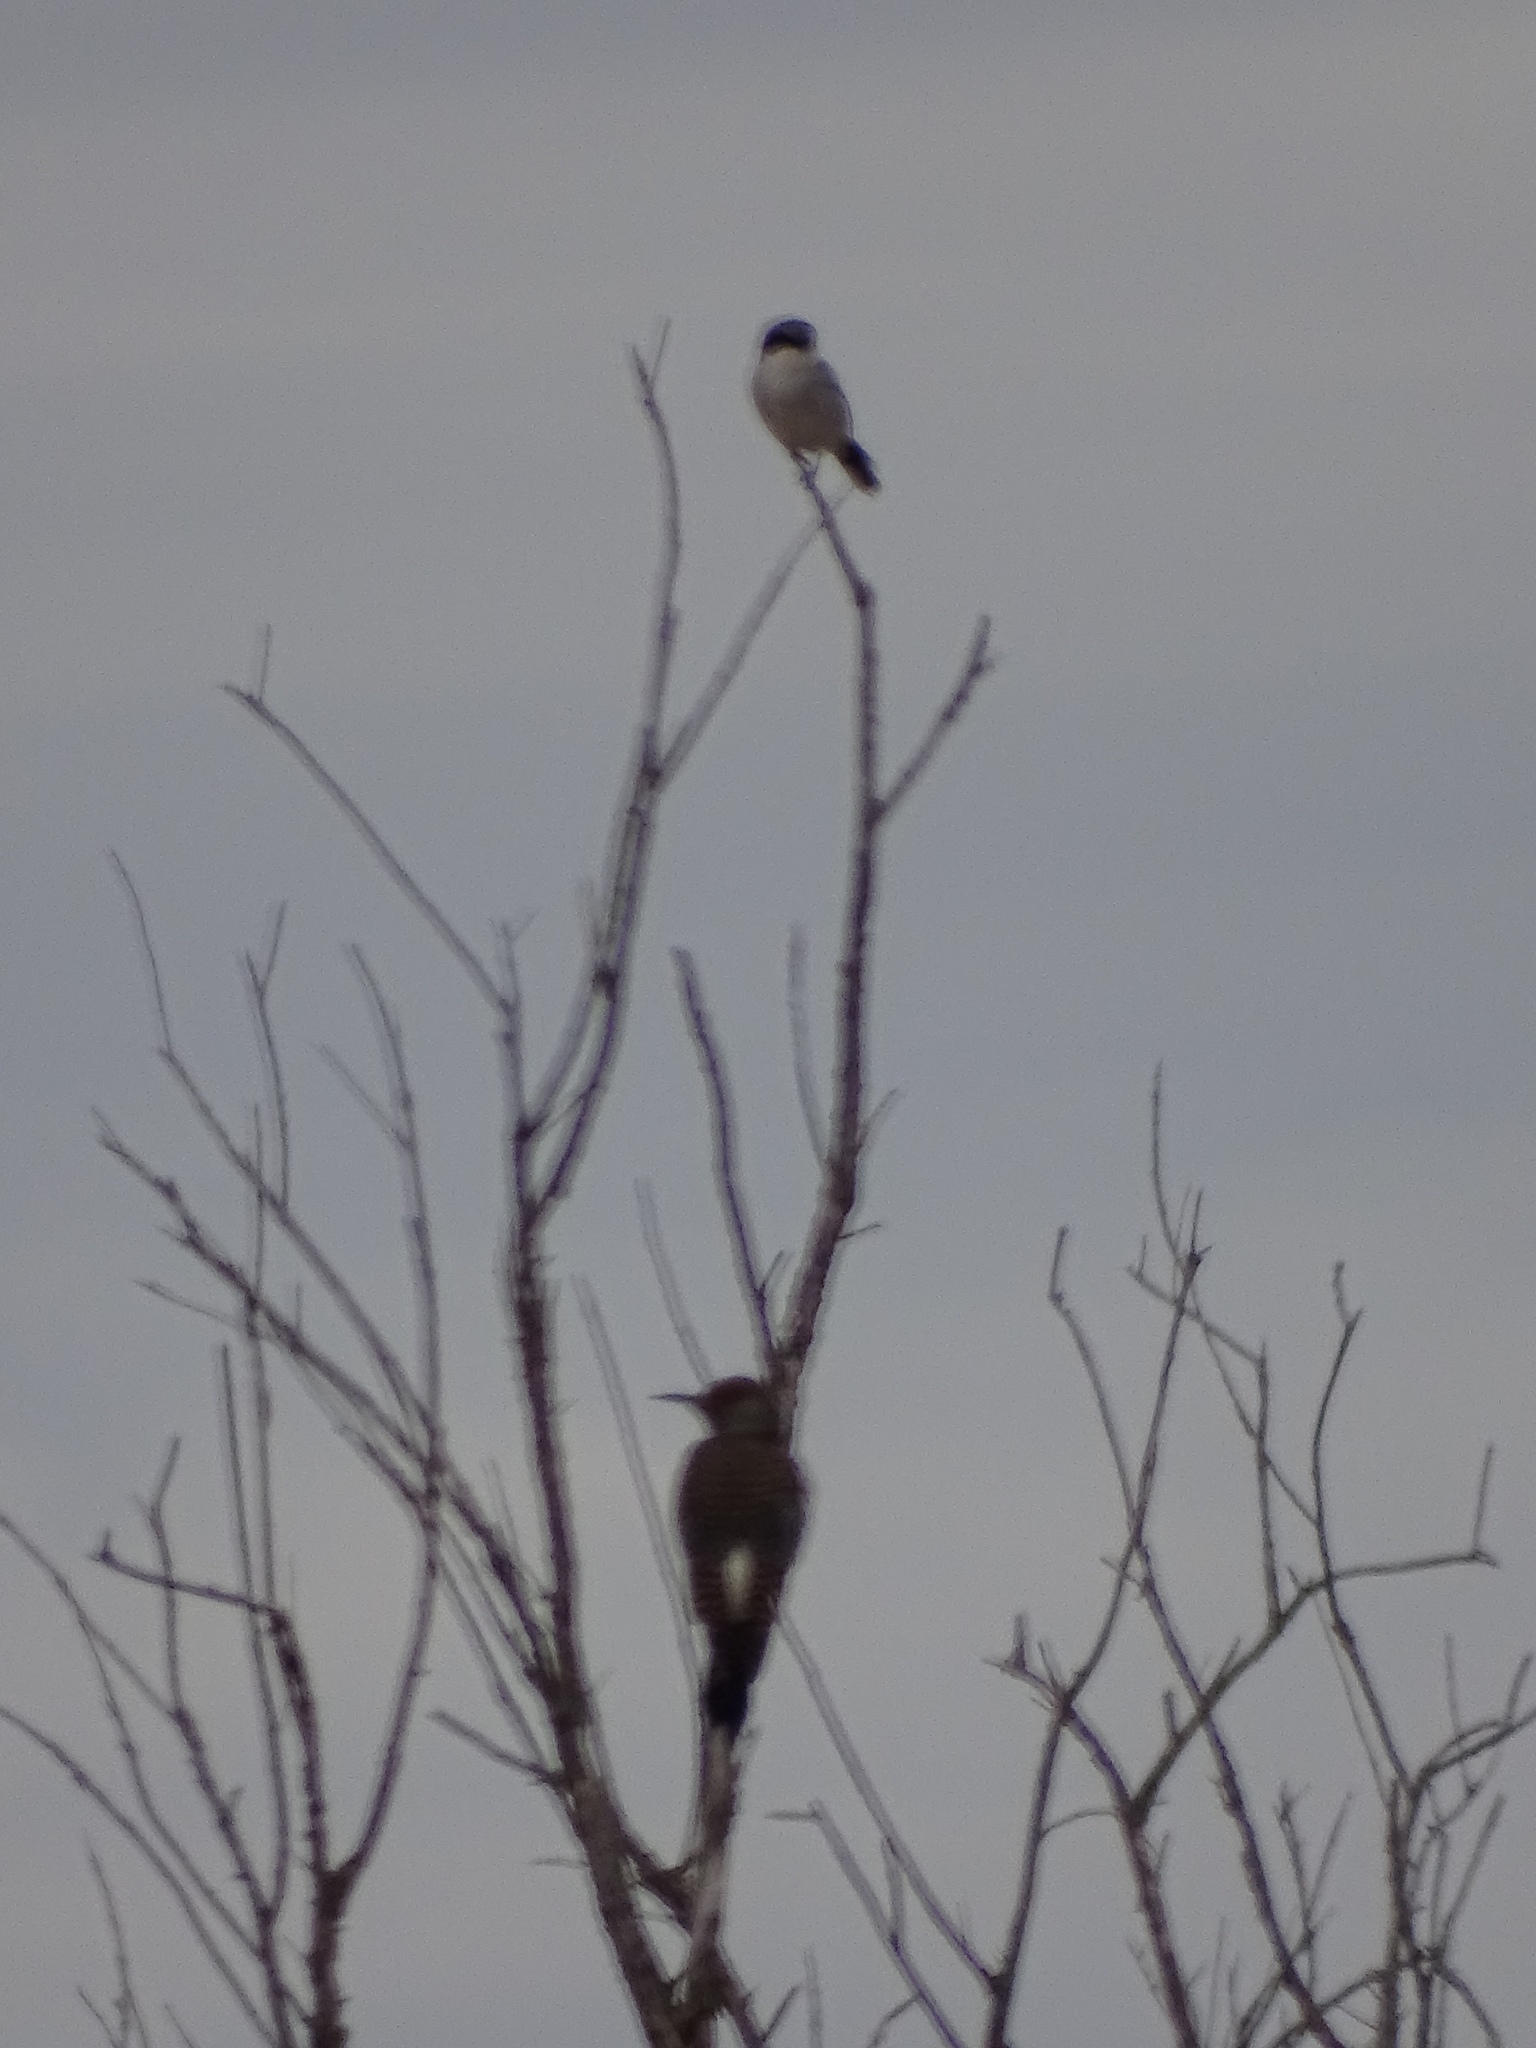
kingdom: Animalia
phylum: Chordata
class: Aves
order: Passeriformes
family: Laniidae
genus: Lanius
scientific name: Lanius ludovicianus
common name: Loggerhead shrike
